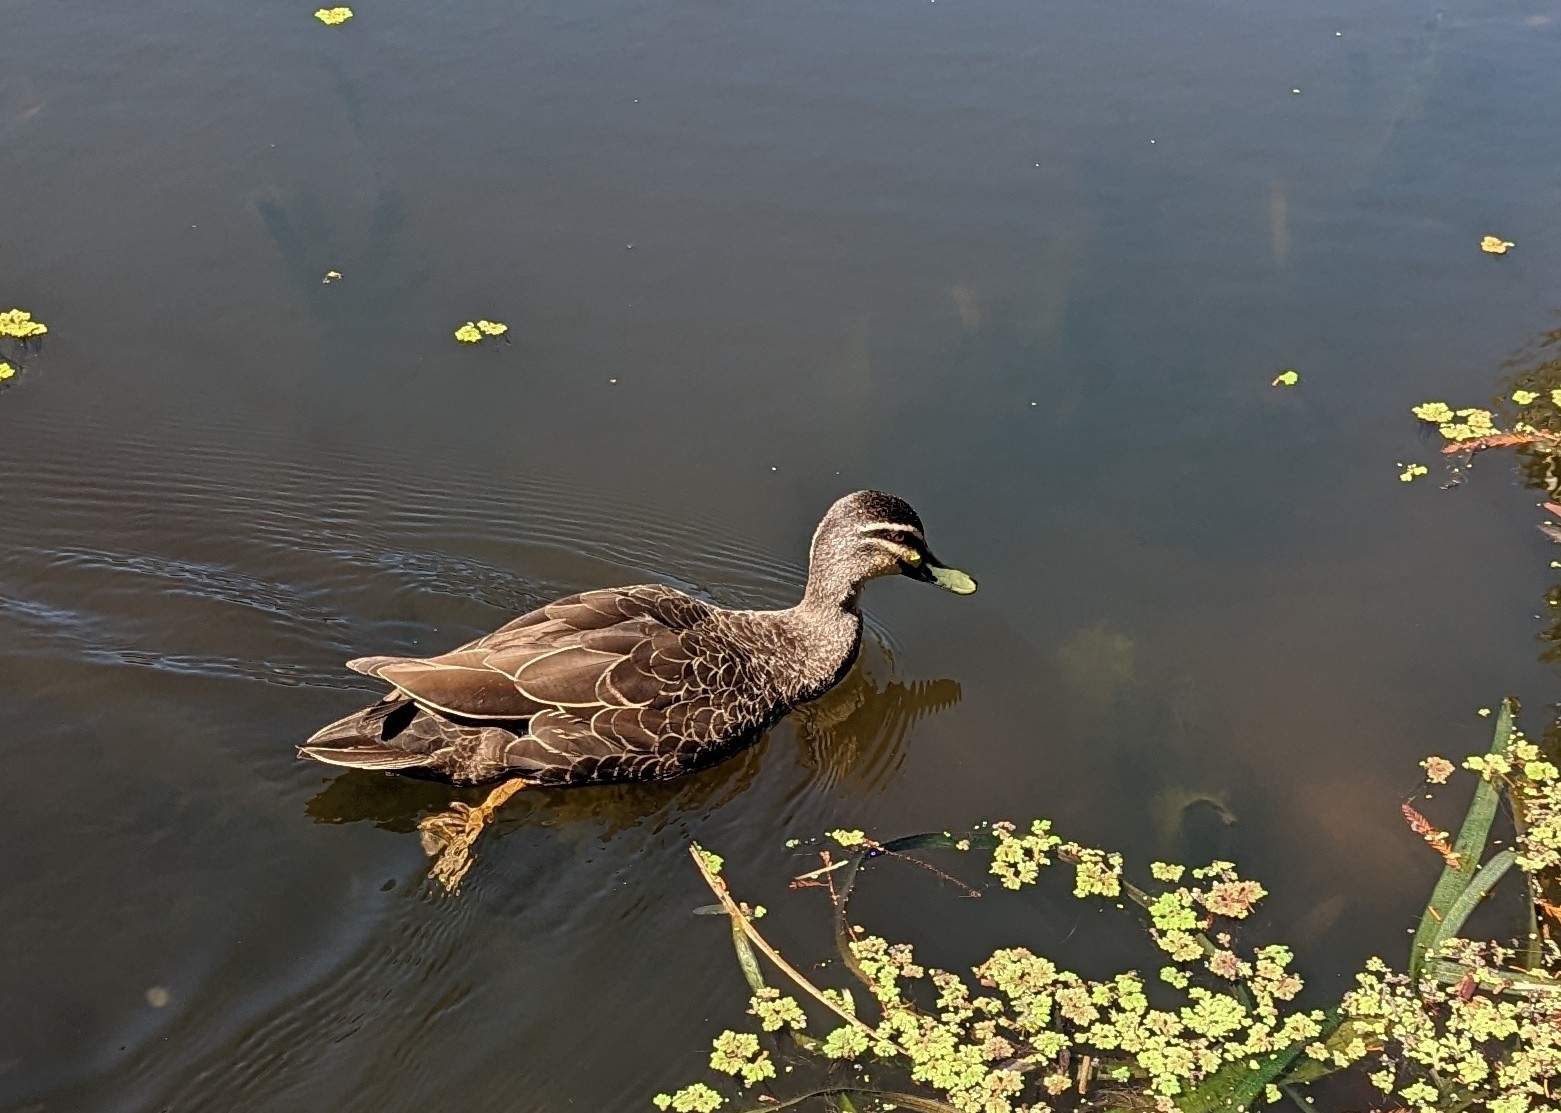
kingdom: Animalia
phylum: Chordata
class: Aves
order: Anseriformes
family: Anatidae
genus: Anas
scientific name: Anas superciliosa
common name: Pacific black duck
